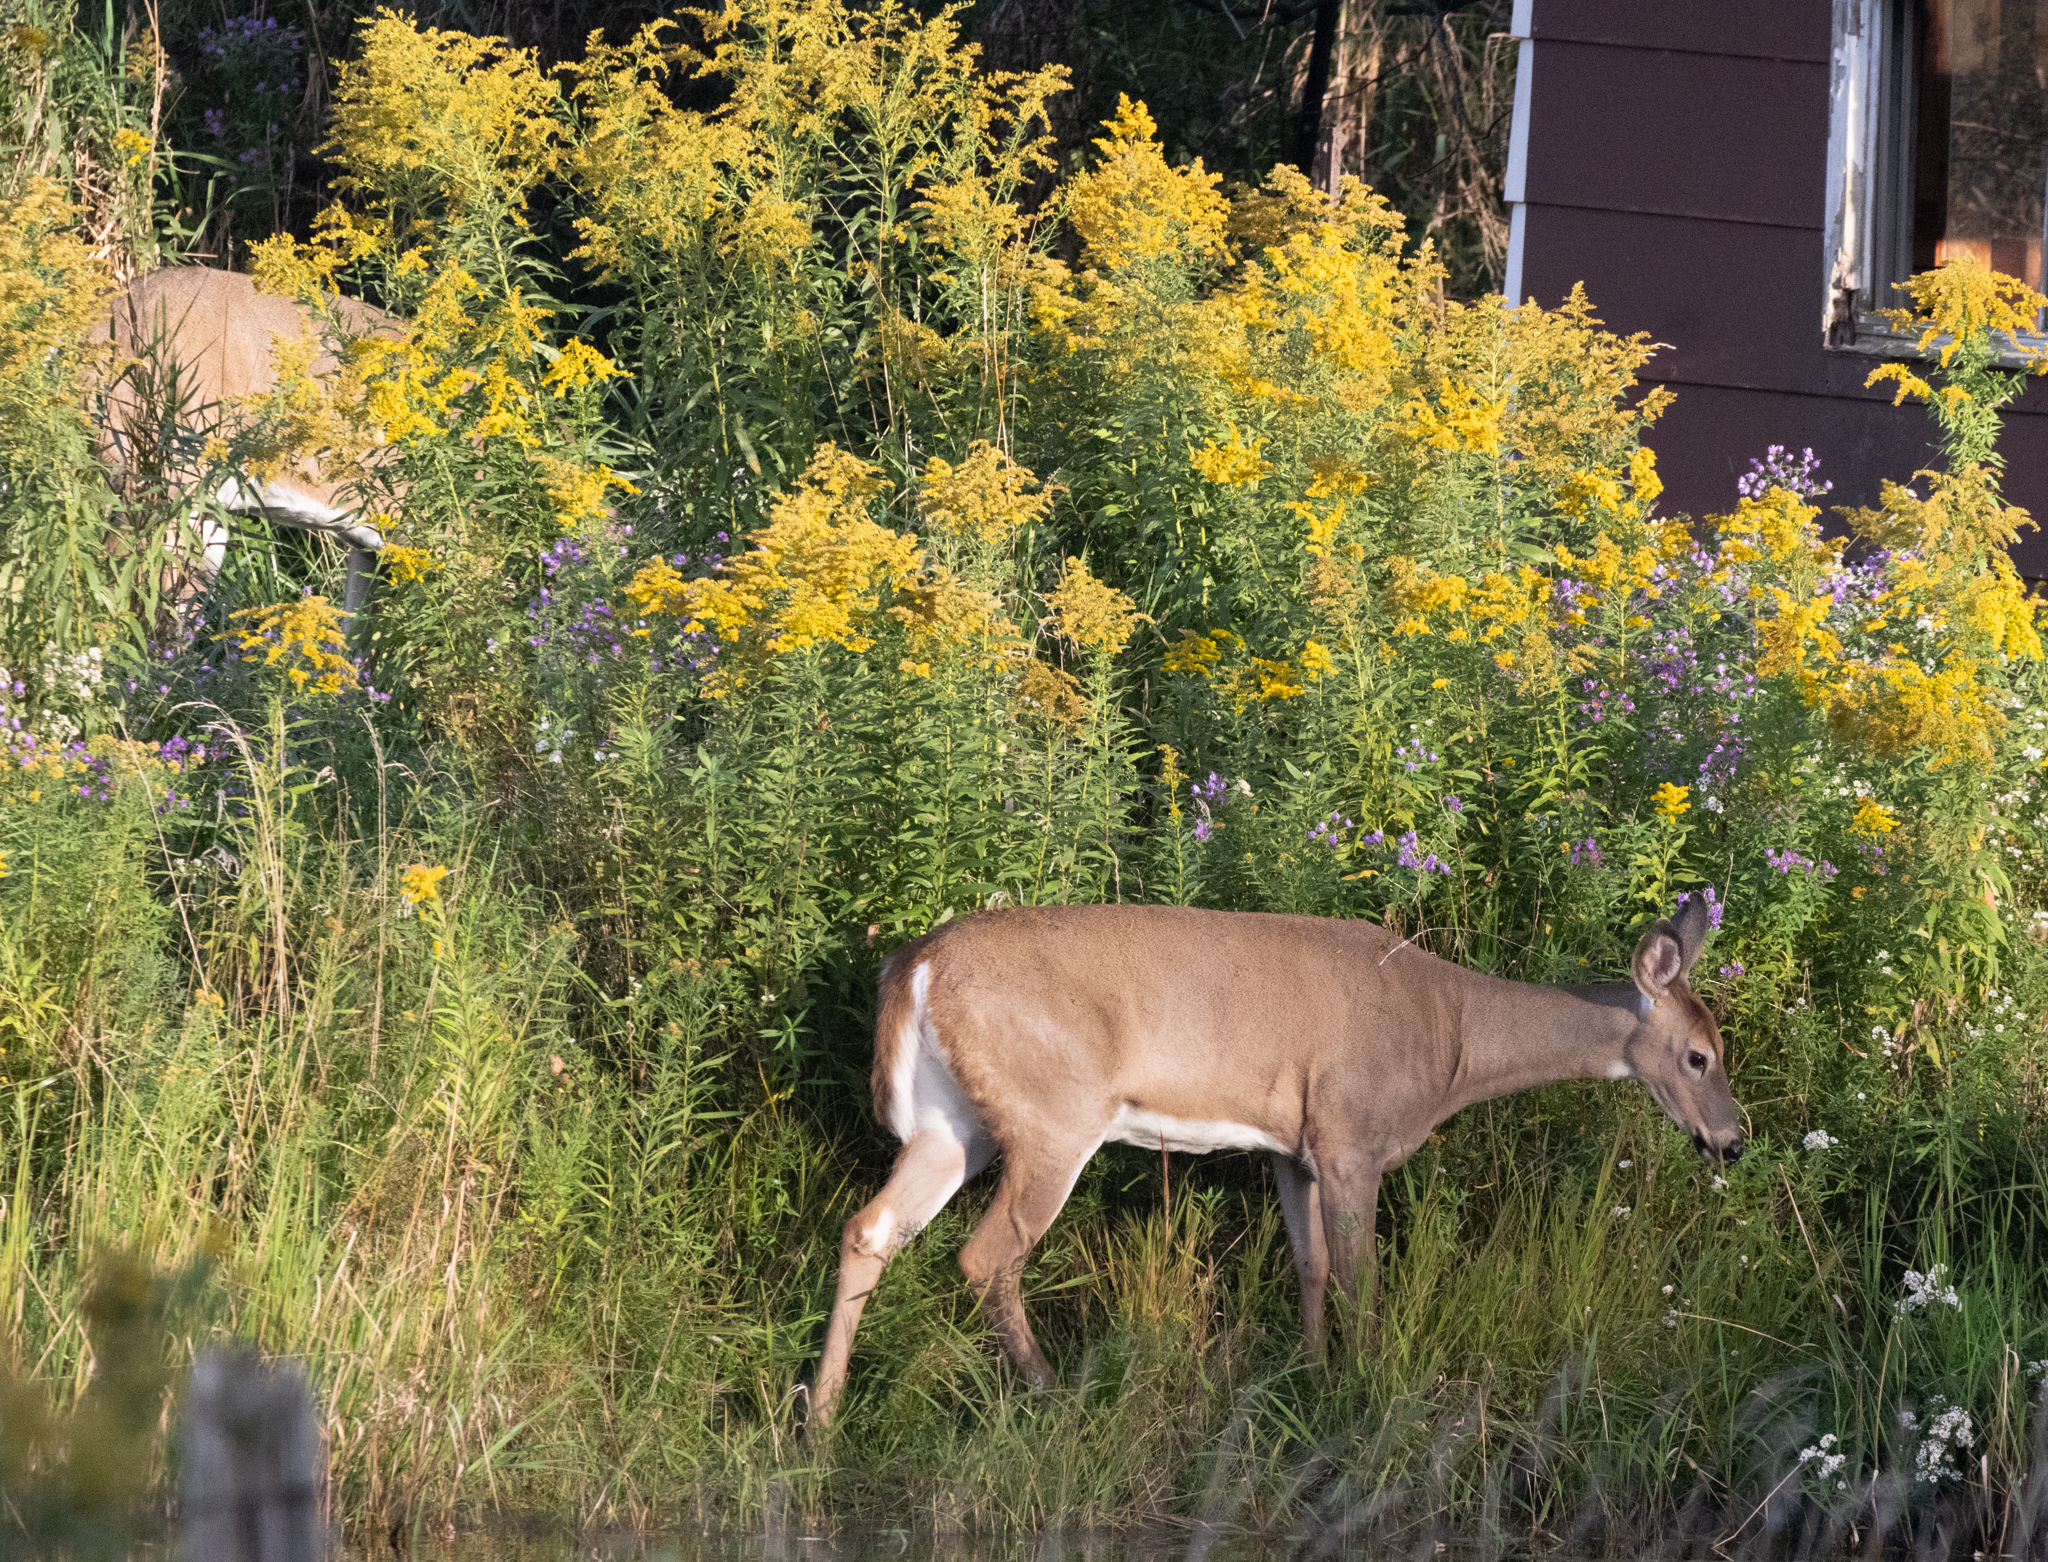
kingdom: Animalia
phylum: Chordata
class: Mammalia
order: Artiodactyla
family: Cervidae
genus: Odocoileus
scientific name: Odocoileus virginianus
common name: White-tailed deer
